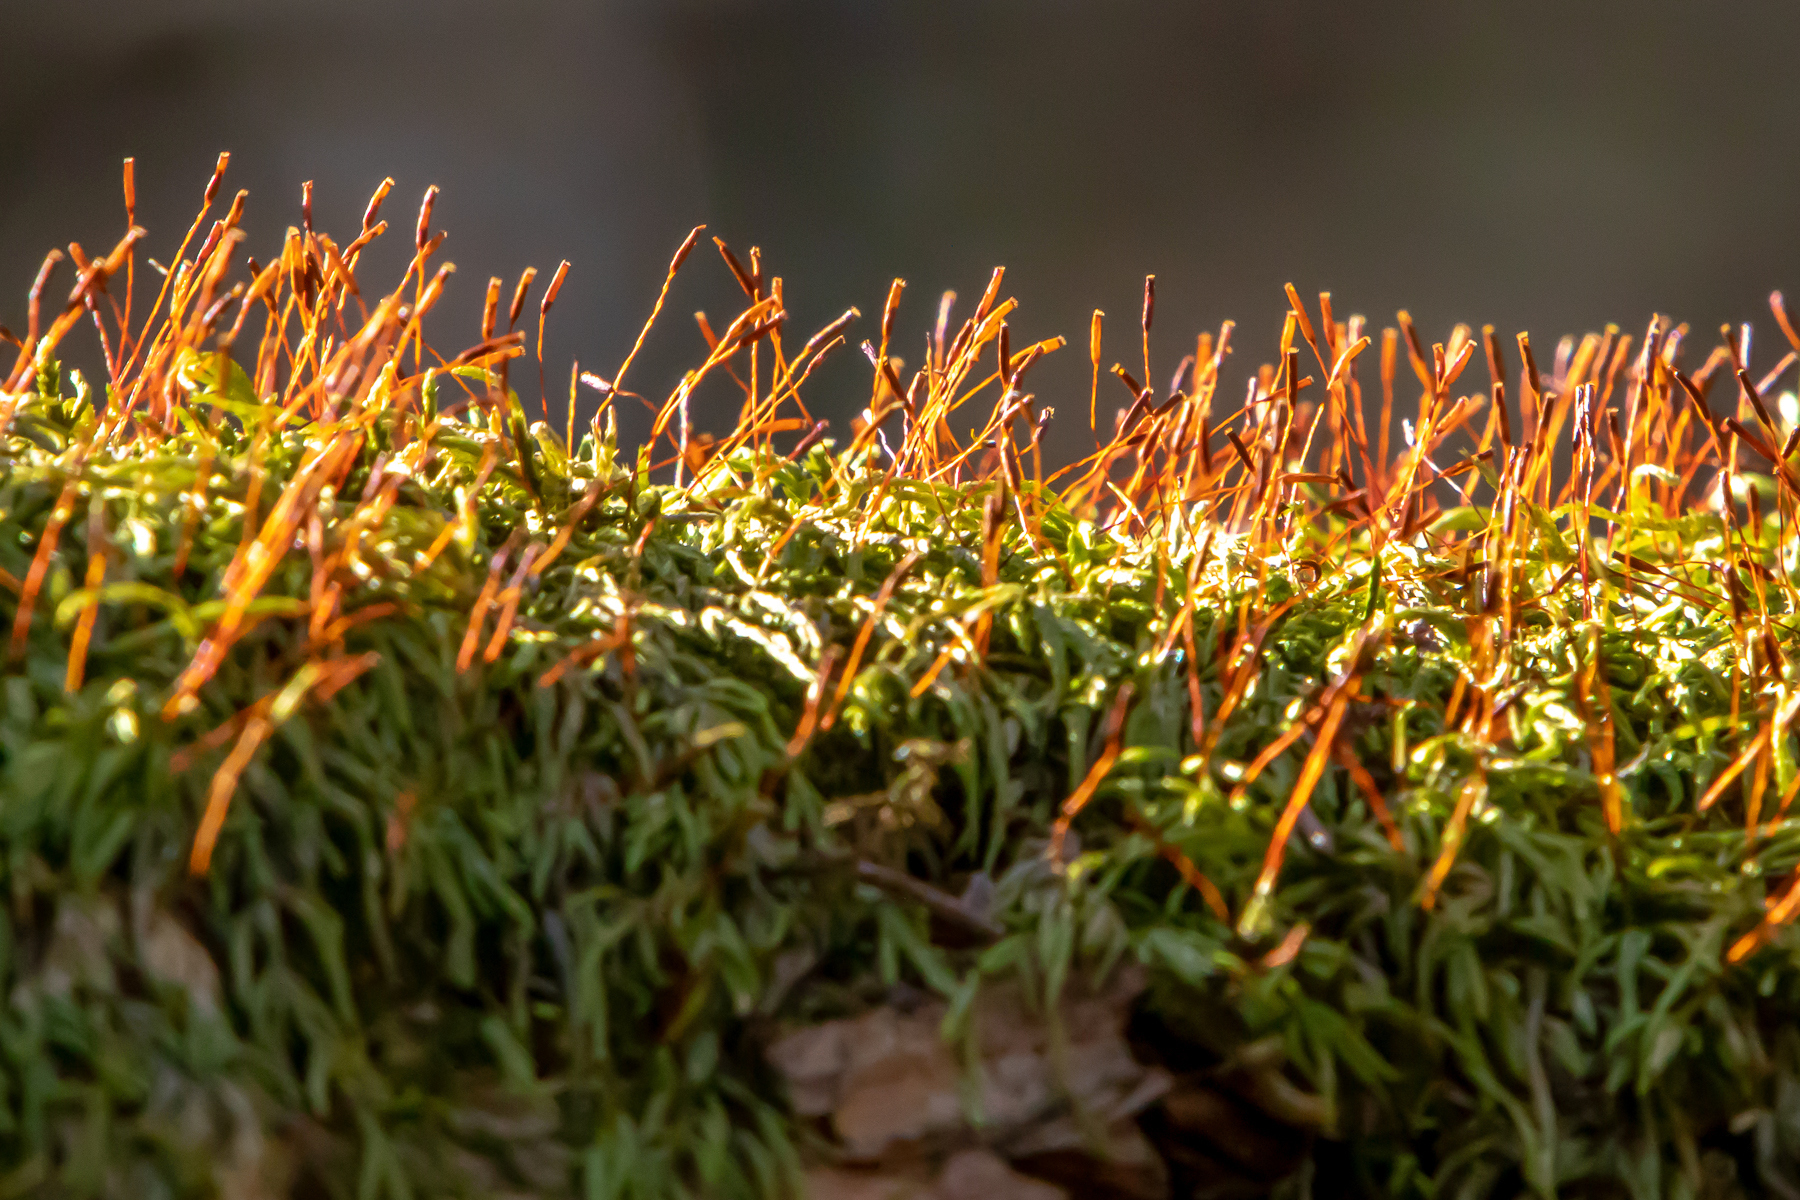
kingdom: Plantae
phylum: Bryophyta
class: Bryopsida
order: Hypnales
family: Hypnaceae
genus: Hypnum
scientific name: Hypnum cupressiforme
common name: Cypress-leaved plait-moss
